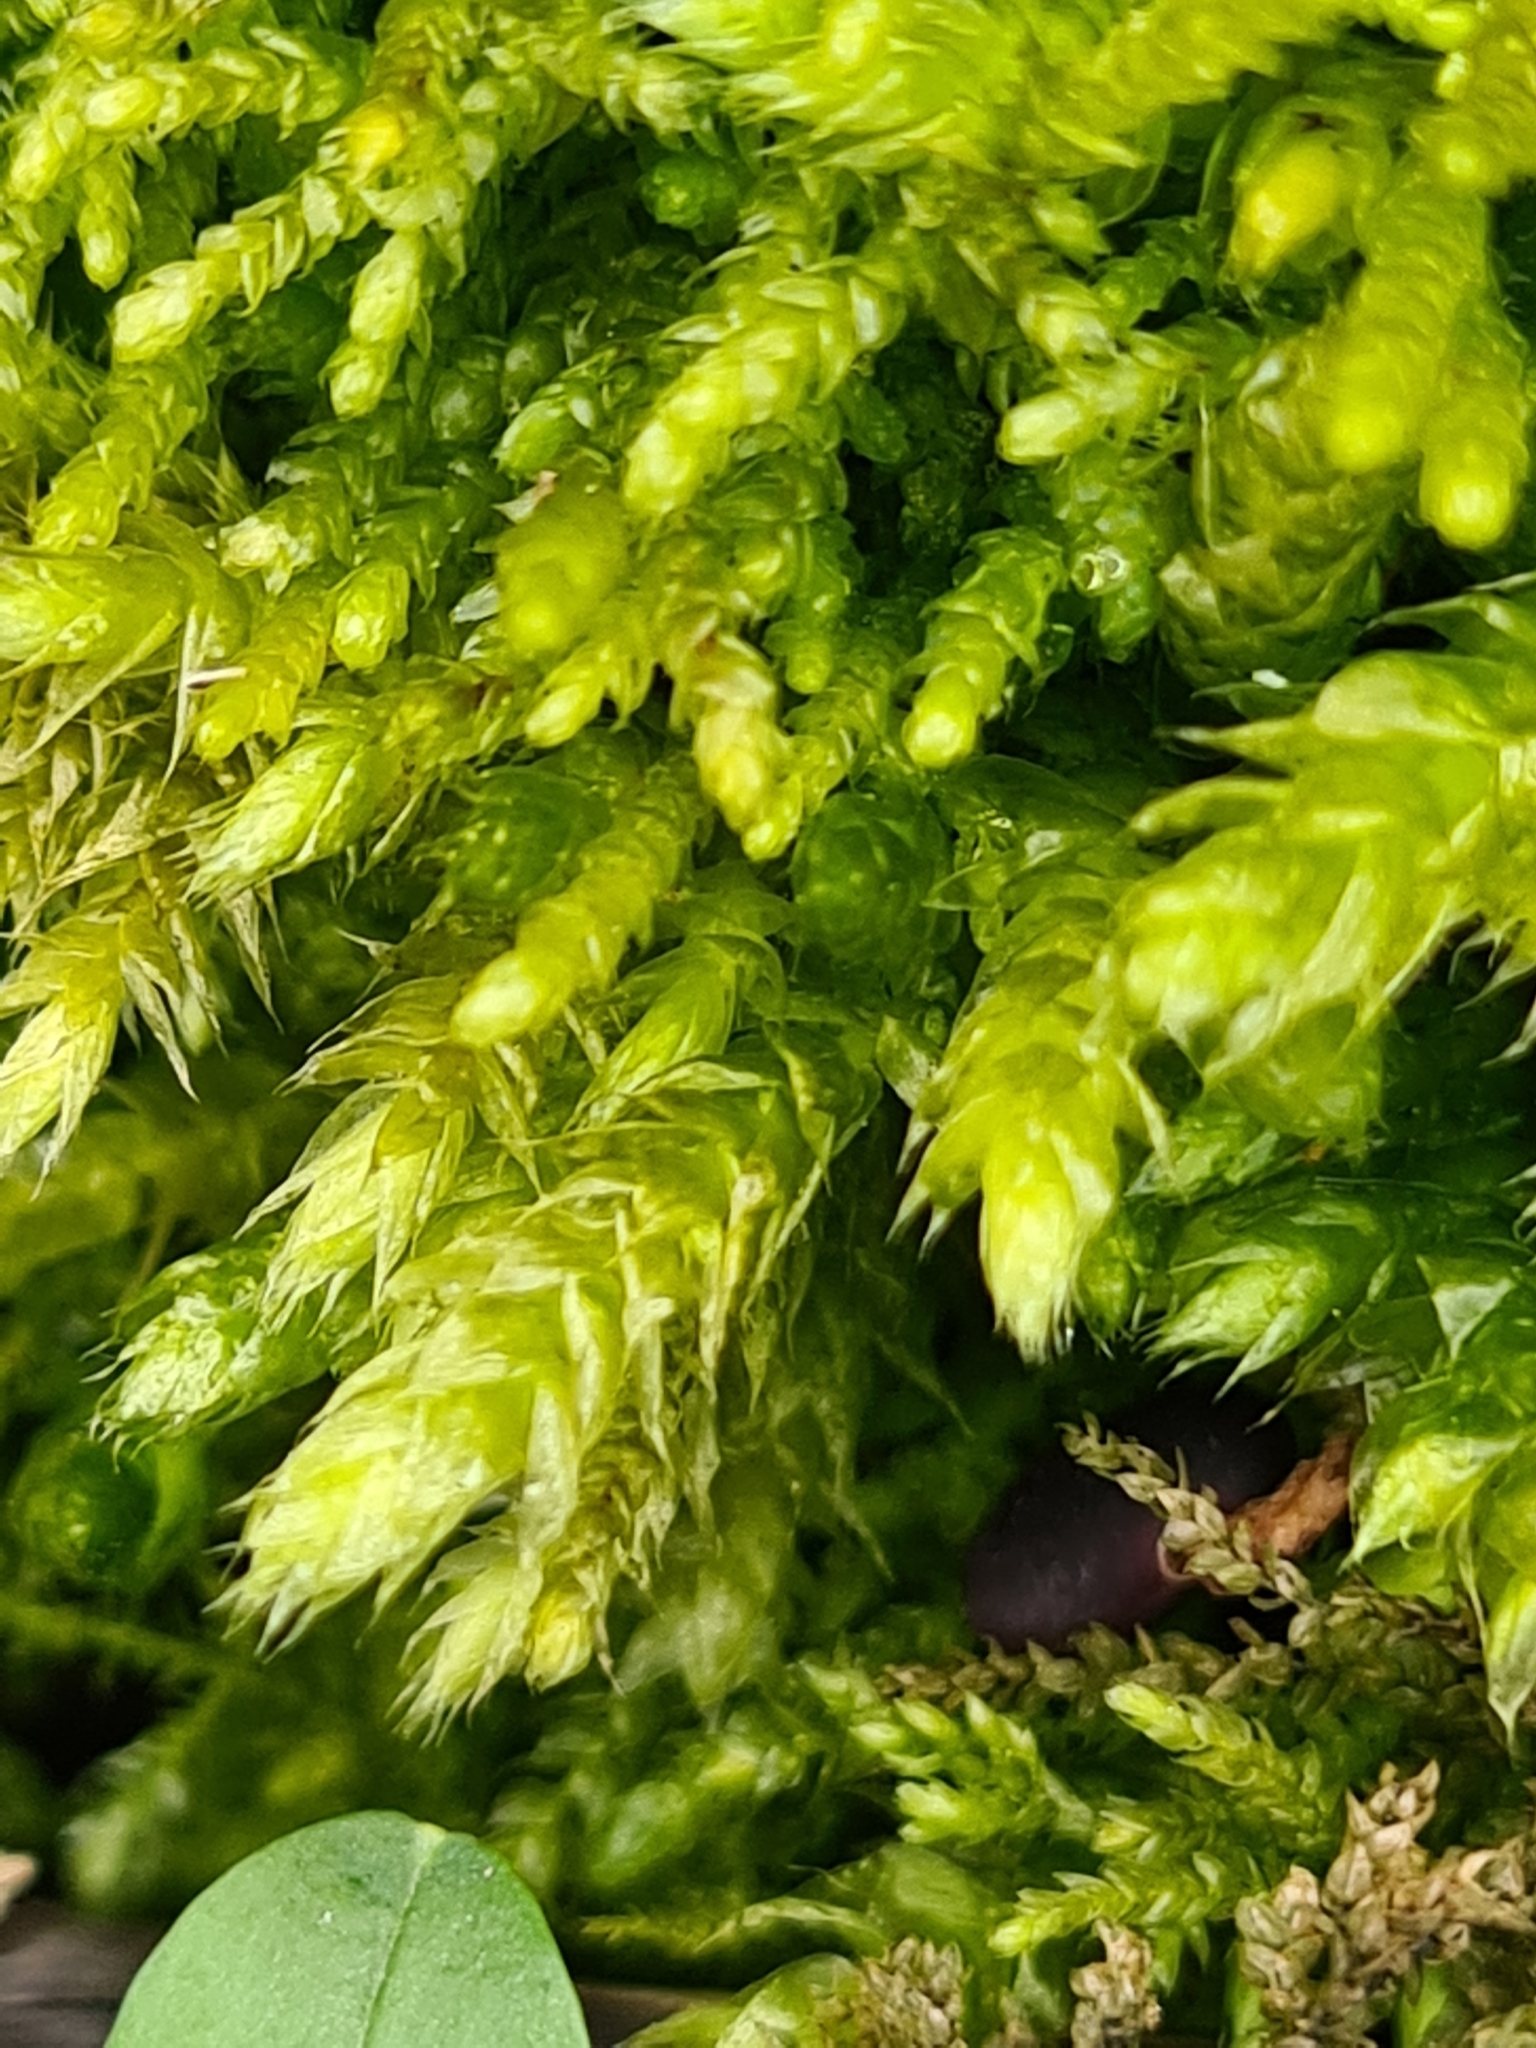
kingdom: Plantae
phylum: Bryophyta
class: Bryopsida
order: Hypnales
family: Brachytheciaceae
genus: Brachythecium
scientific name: Brachythecium rutabulum
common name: Rough-stalked feather-moss
